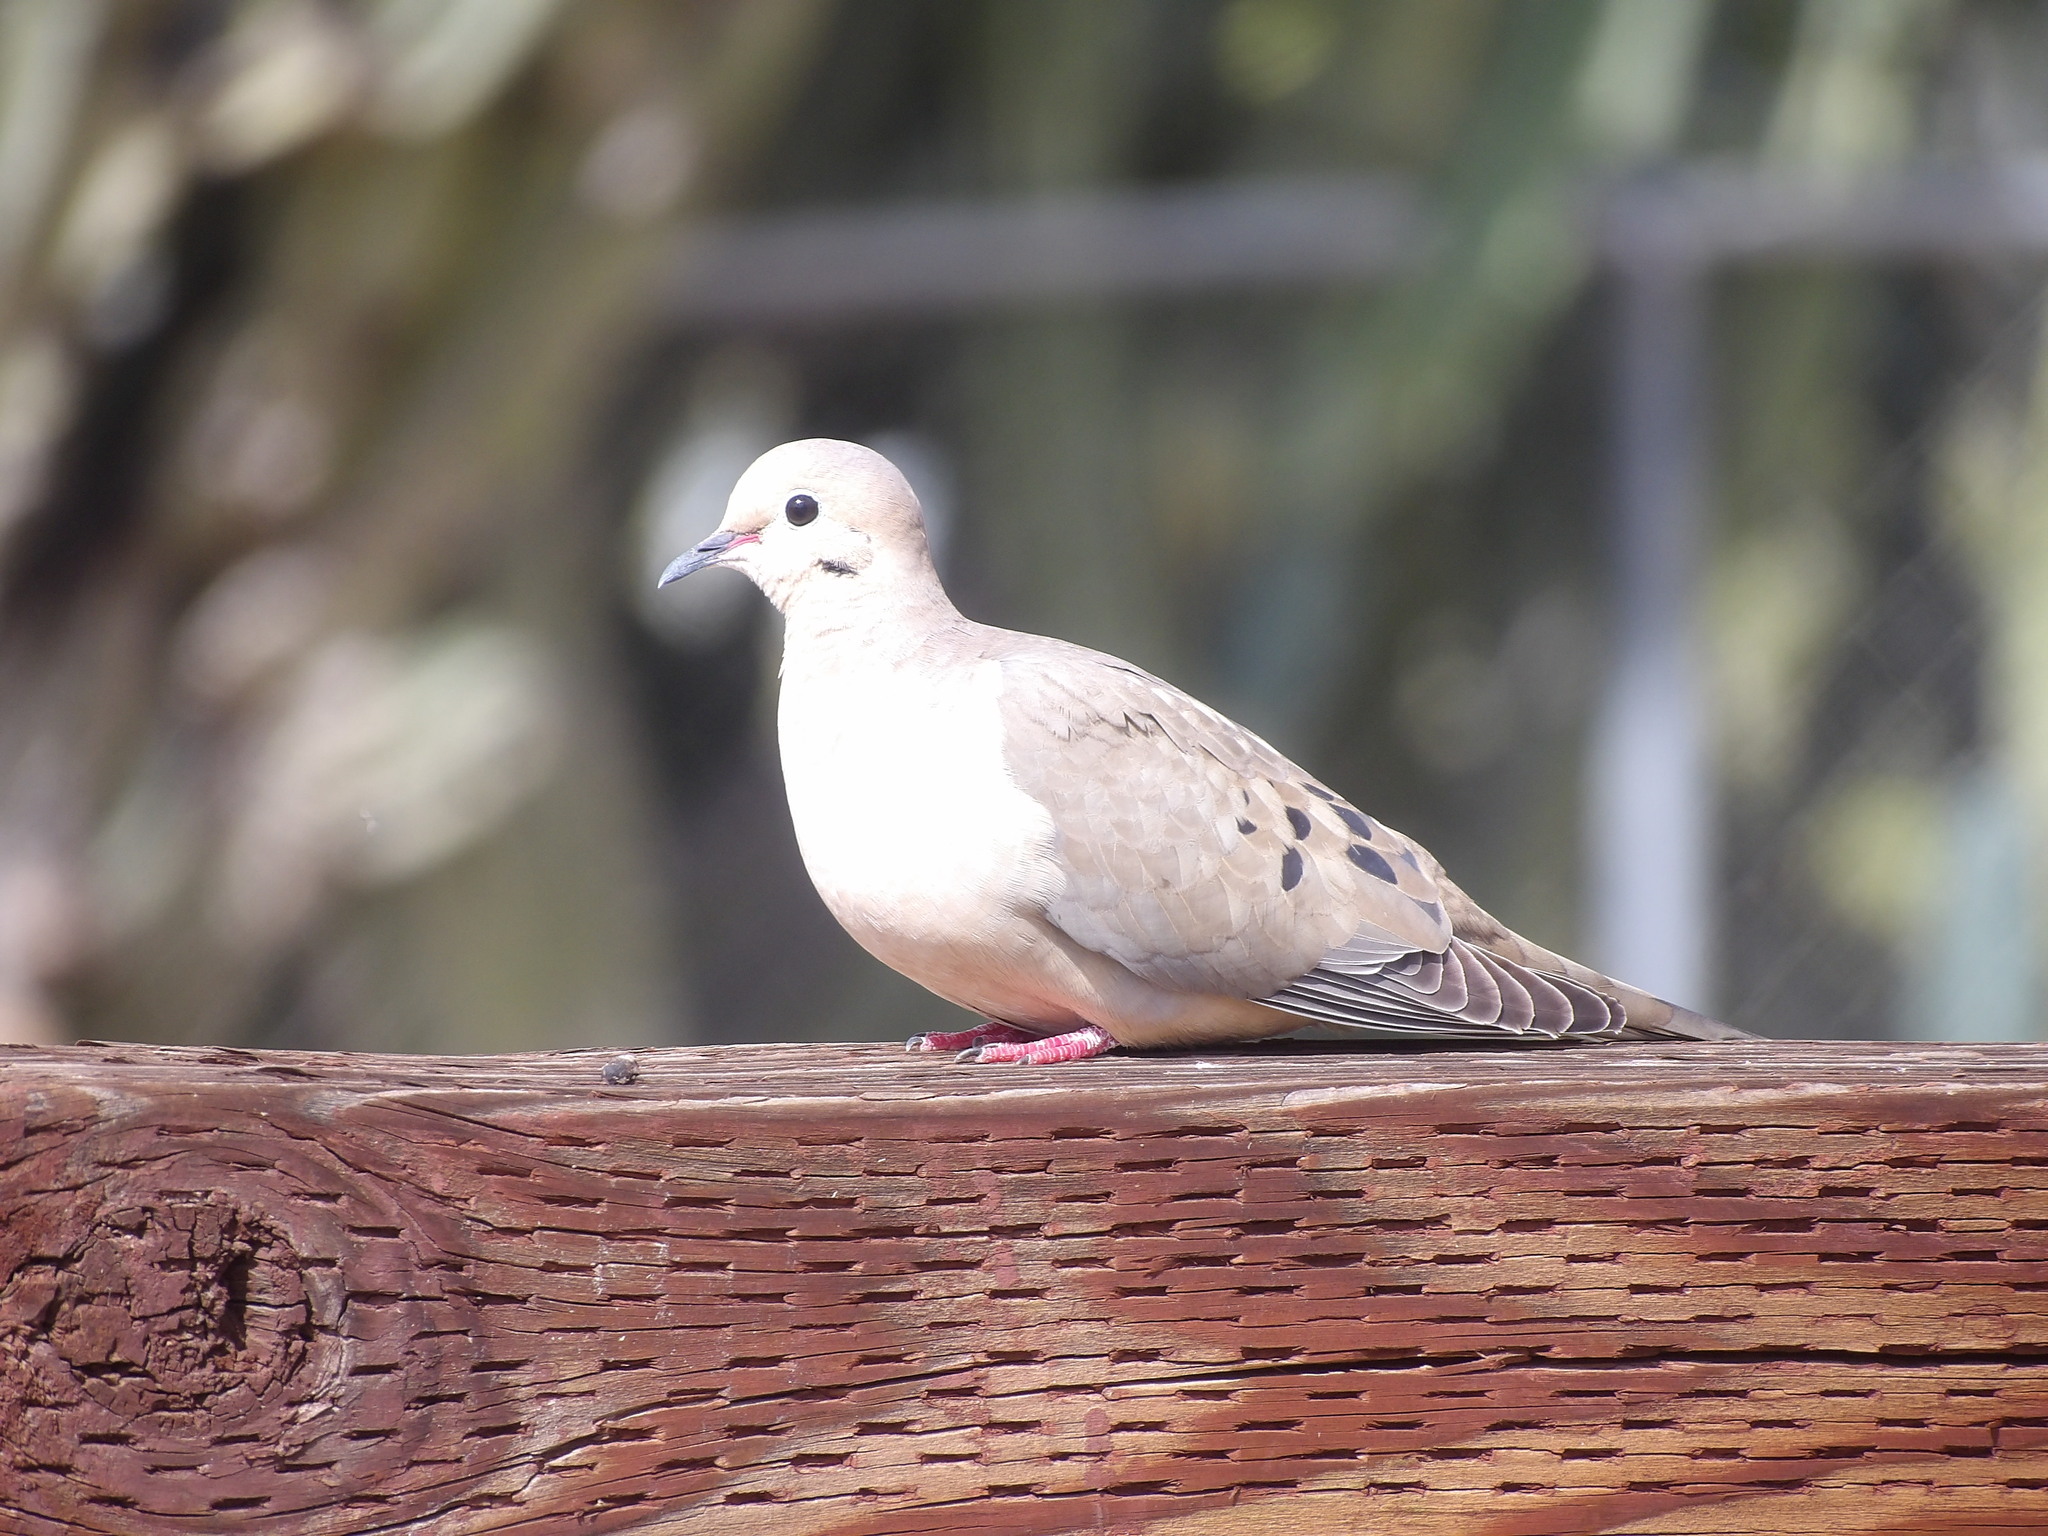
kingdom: Animalia
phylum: Chordata
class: Aves
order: Columbiformes
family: Columbidae
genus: Zenaida
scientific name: Zenaida macroura
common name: Mourning dove
